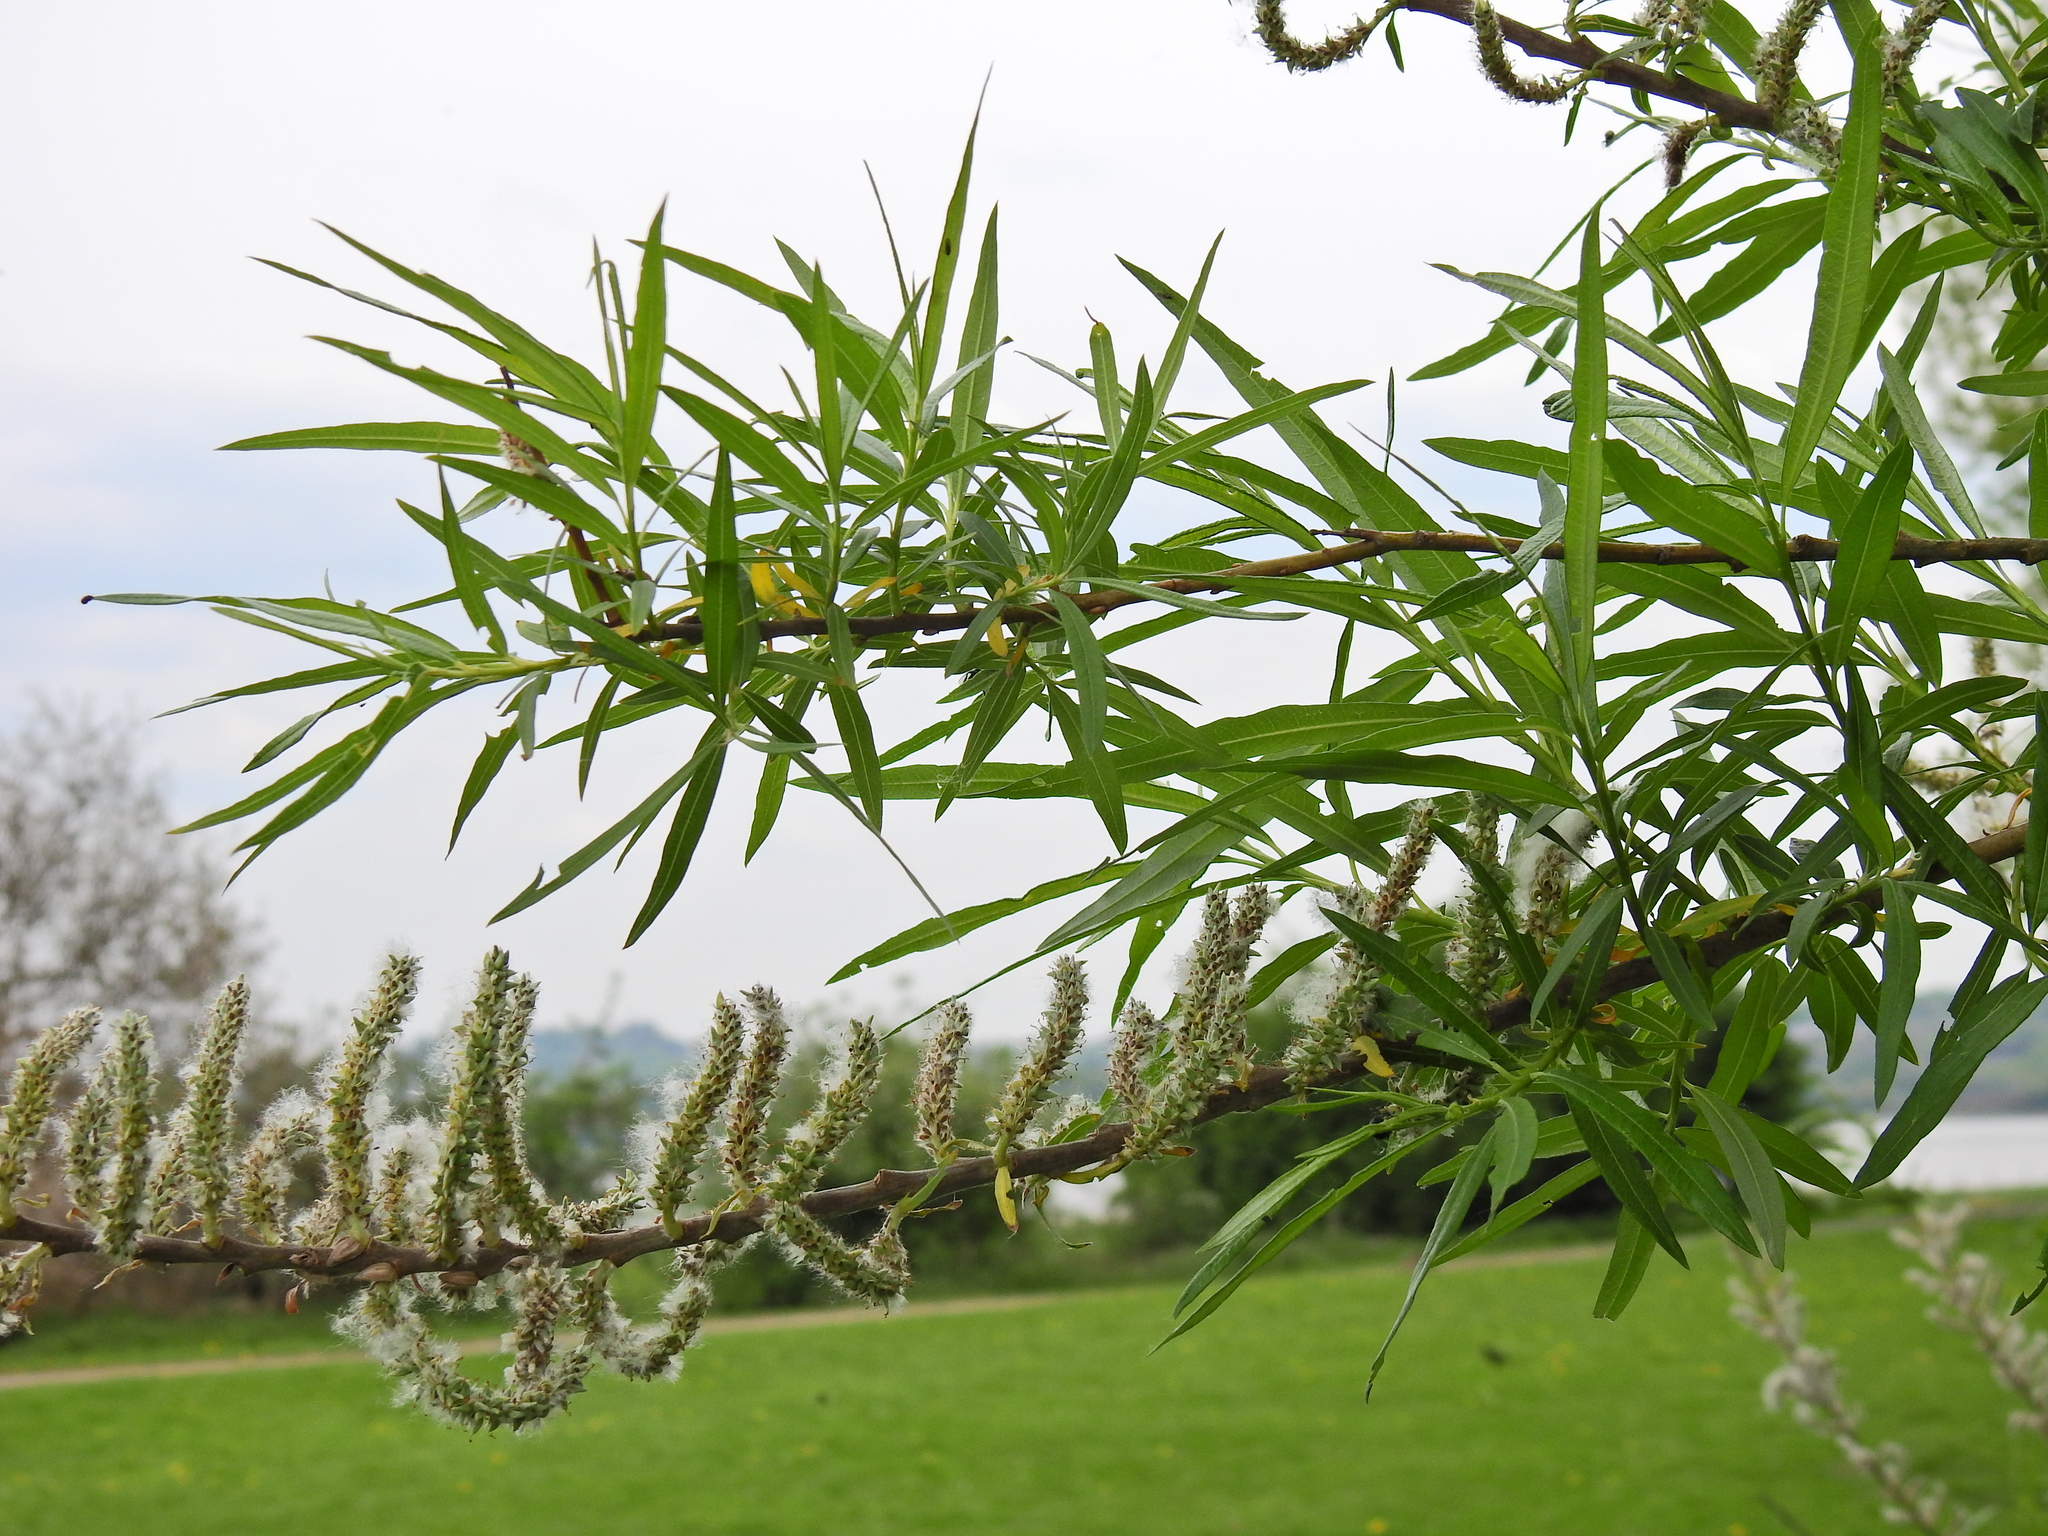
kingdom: Plantae
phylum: Tracheophyta
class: Magnoliopsida
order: Malpighiales
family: Salicaceae
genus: Salix
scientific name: Salix viminalis
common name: Osier
